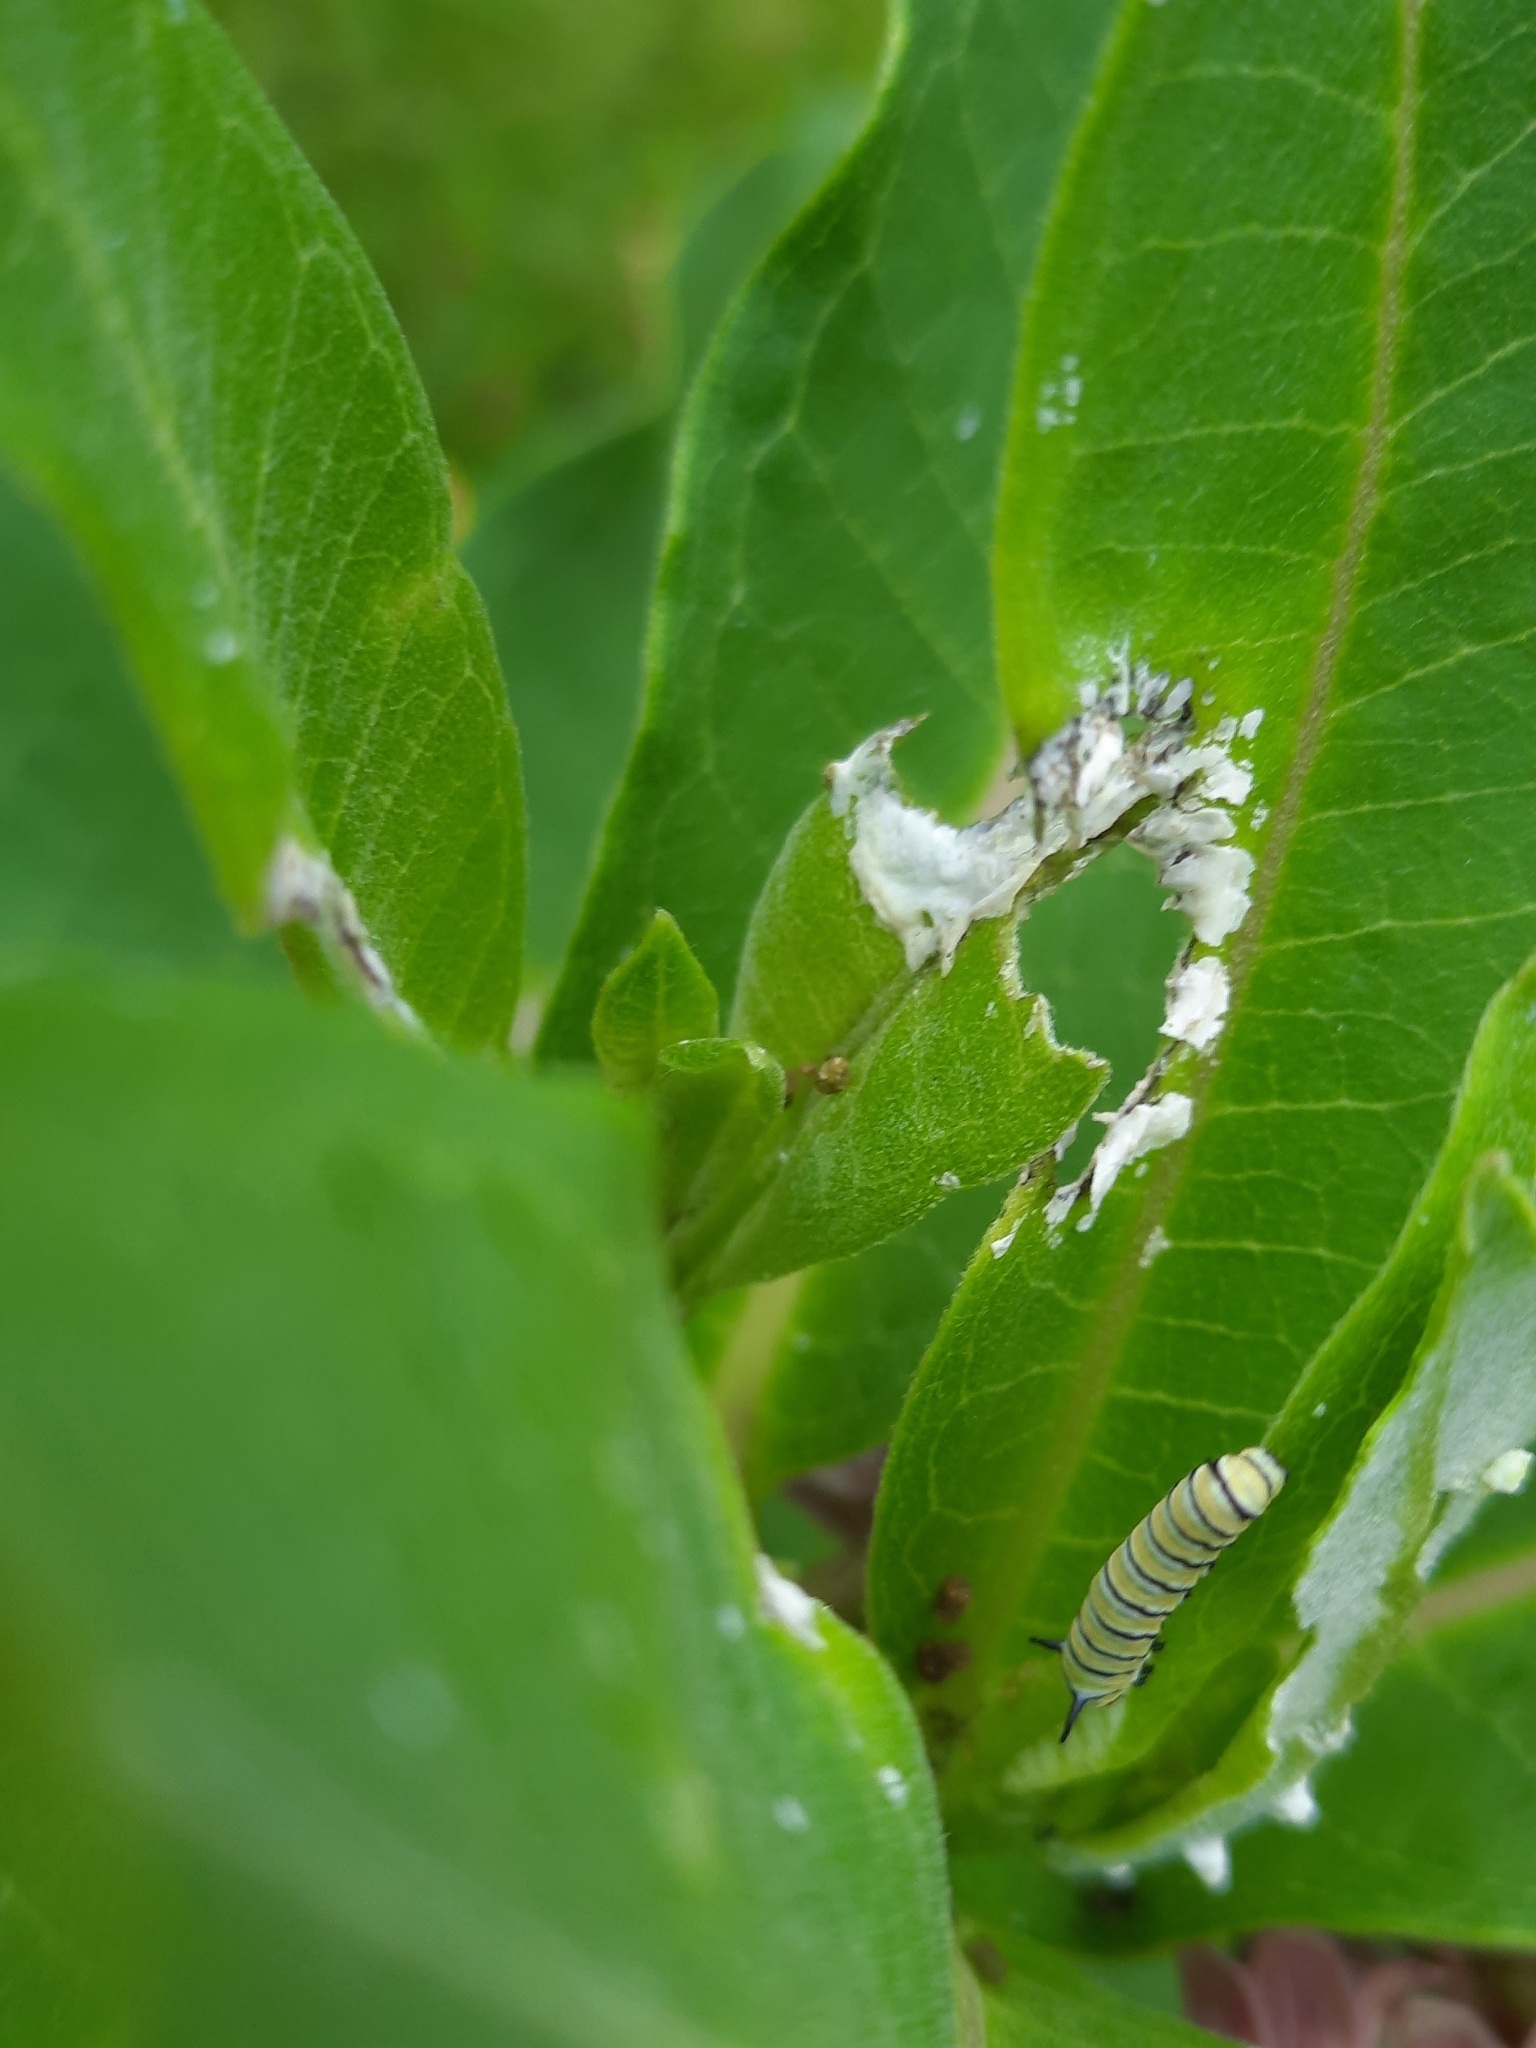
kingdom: Animalia
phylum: Arthropoda
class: Insecta
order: Lepidoptera
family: Nymphalidae
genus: Danaus
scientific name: Danaus plexippus
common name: Monarch
